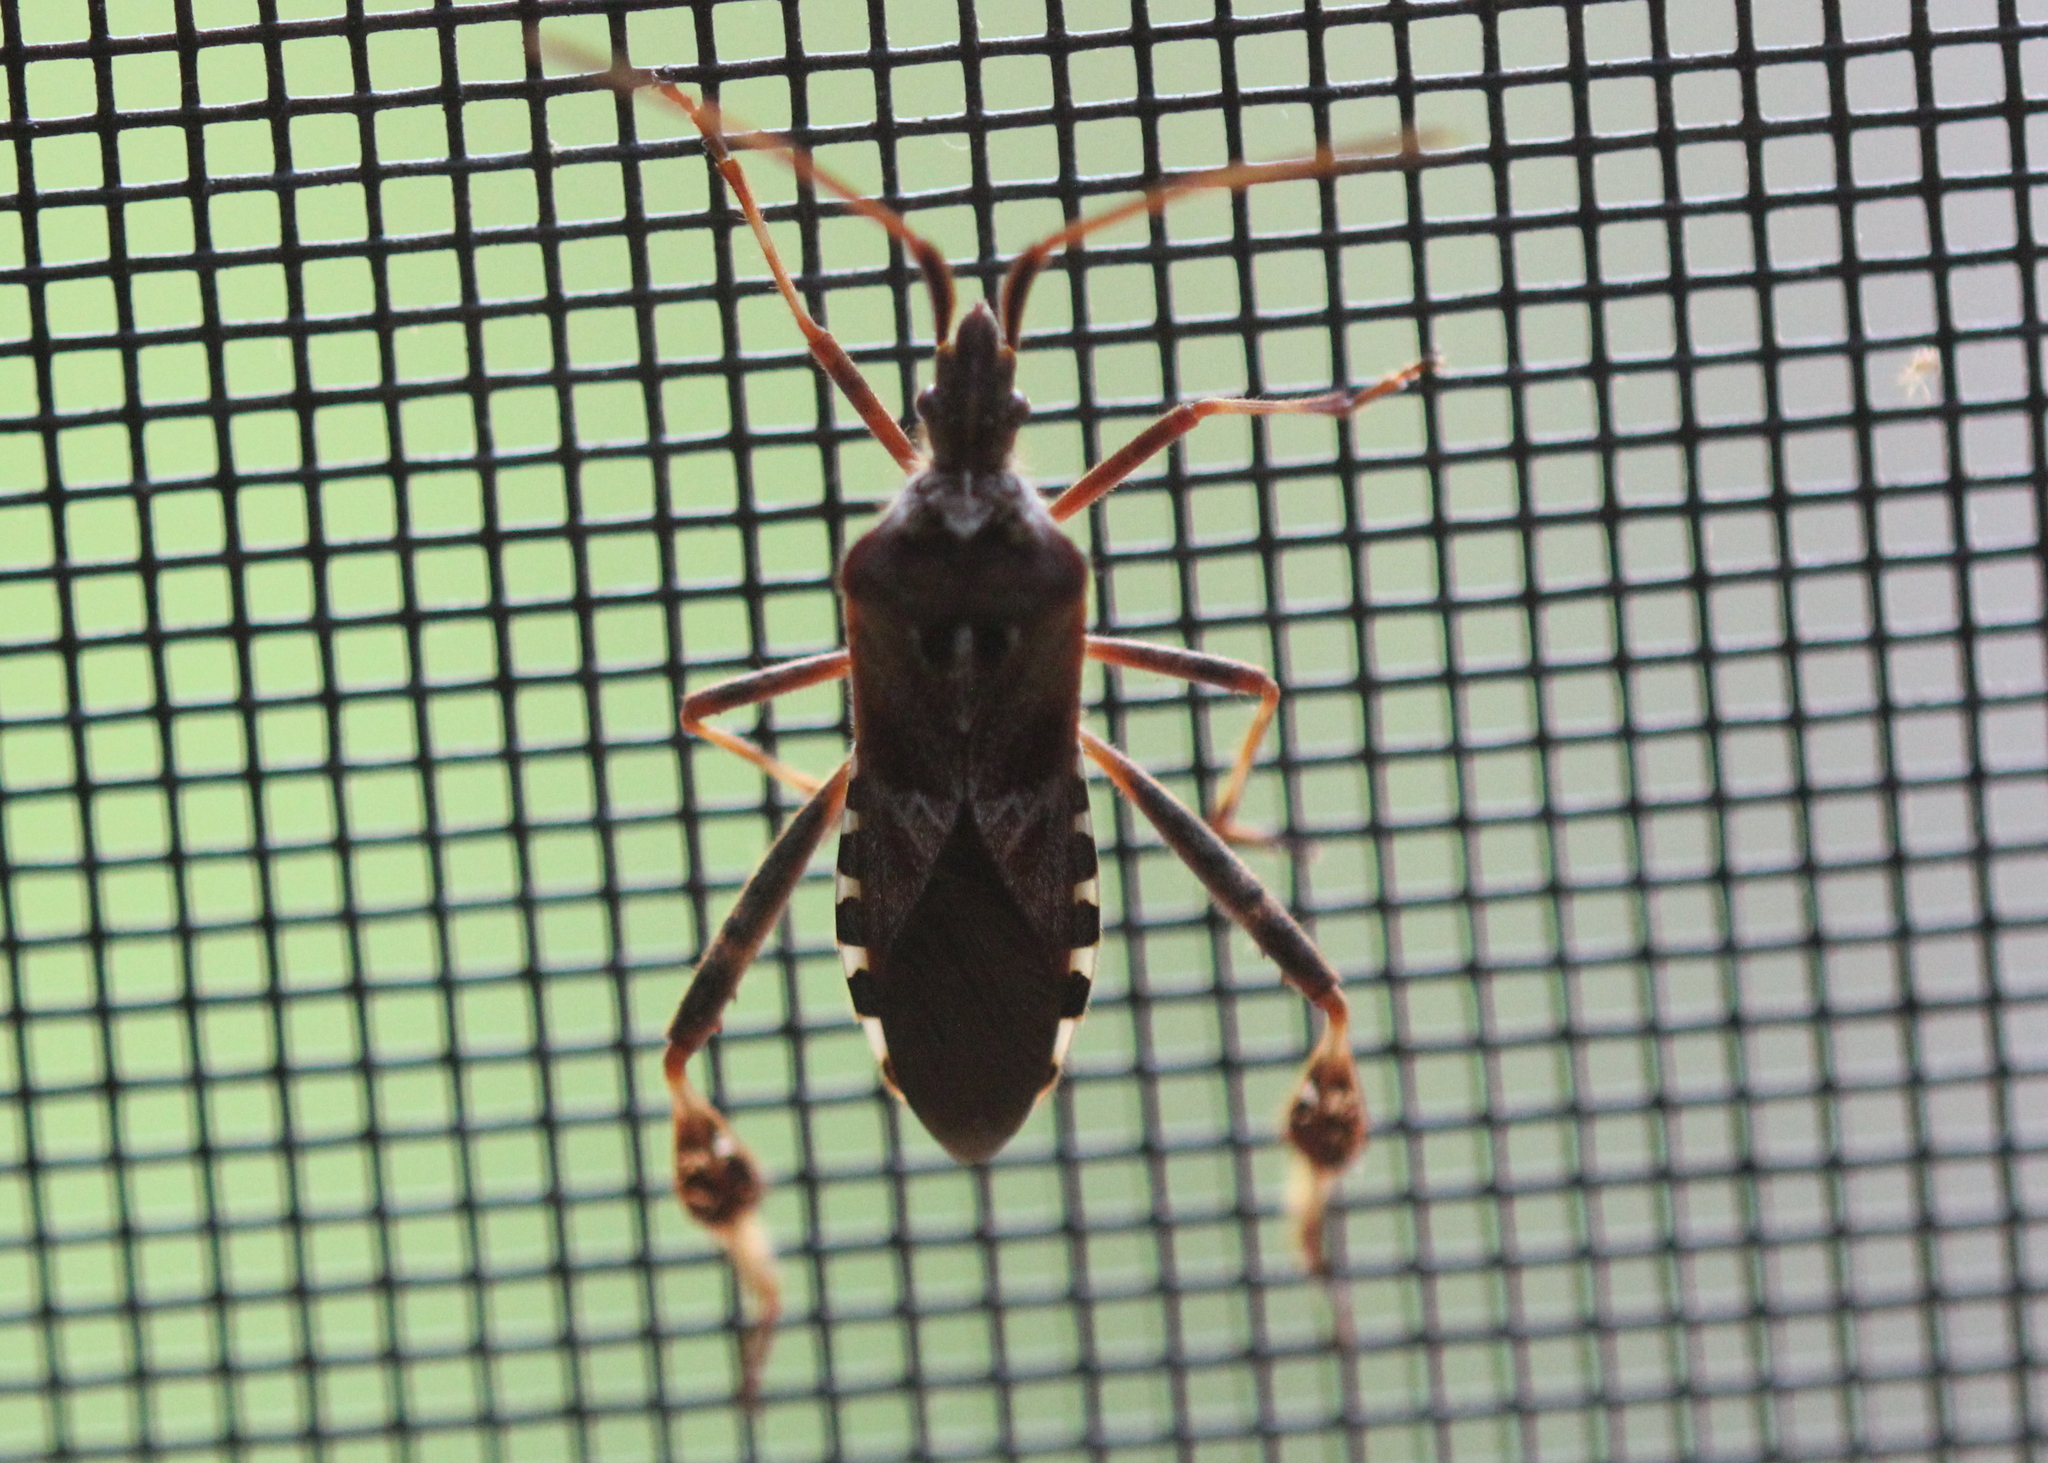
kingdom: Animalia
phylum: Arthropoda
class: Insecta
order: Hemiptera
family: Coreidae
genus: Leptoglossus
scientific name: Leptoglossus occidentalis
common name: Western conifer-seed bug
